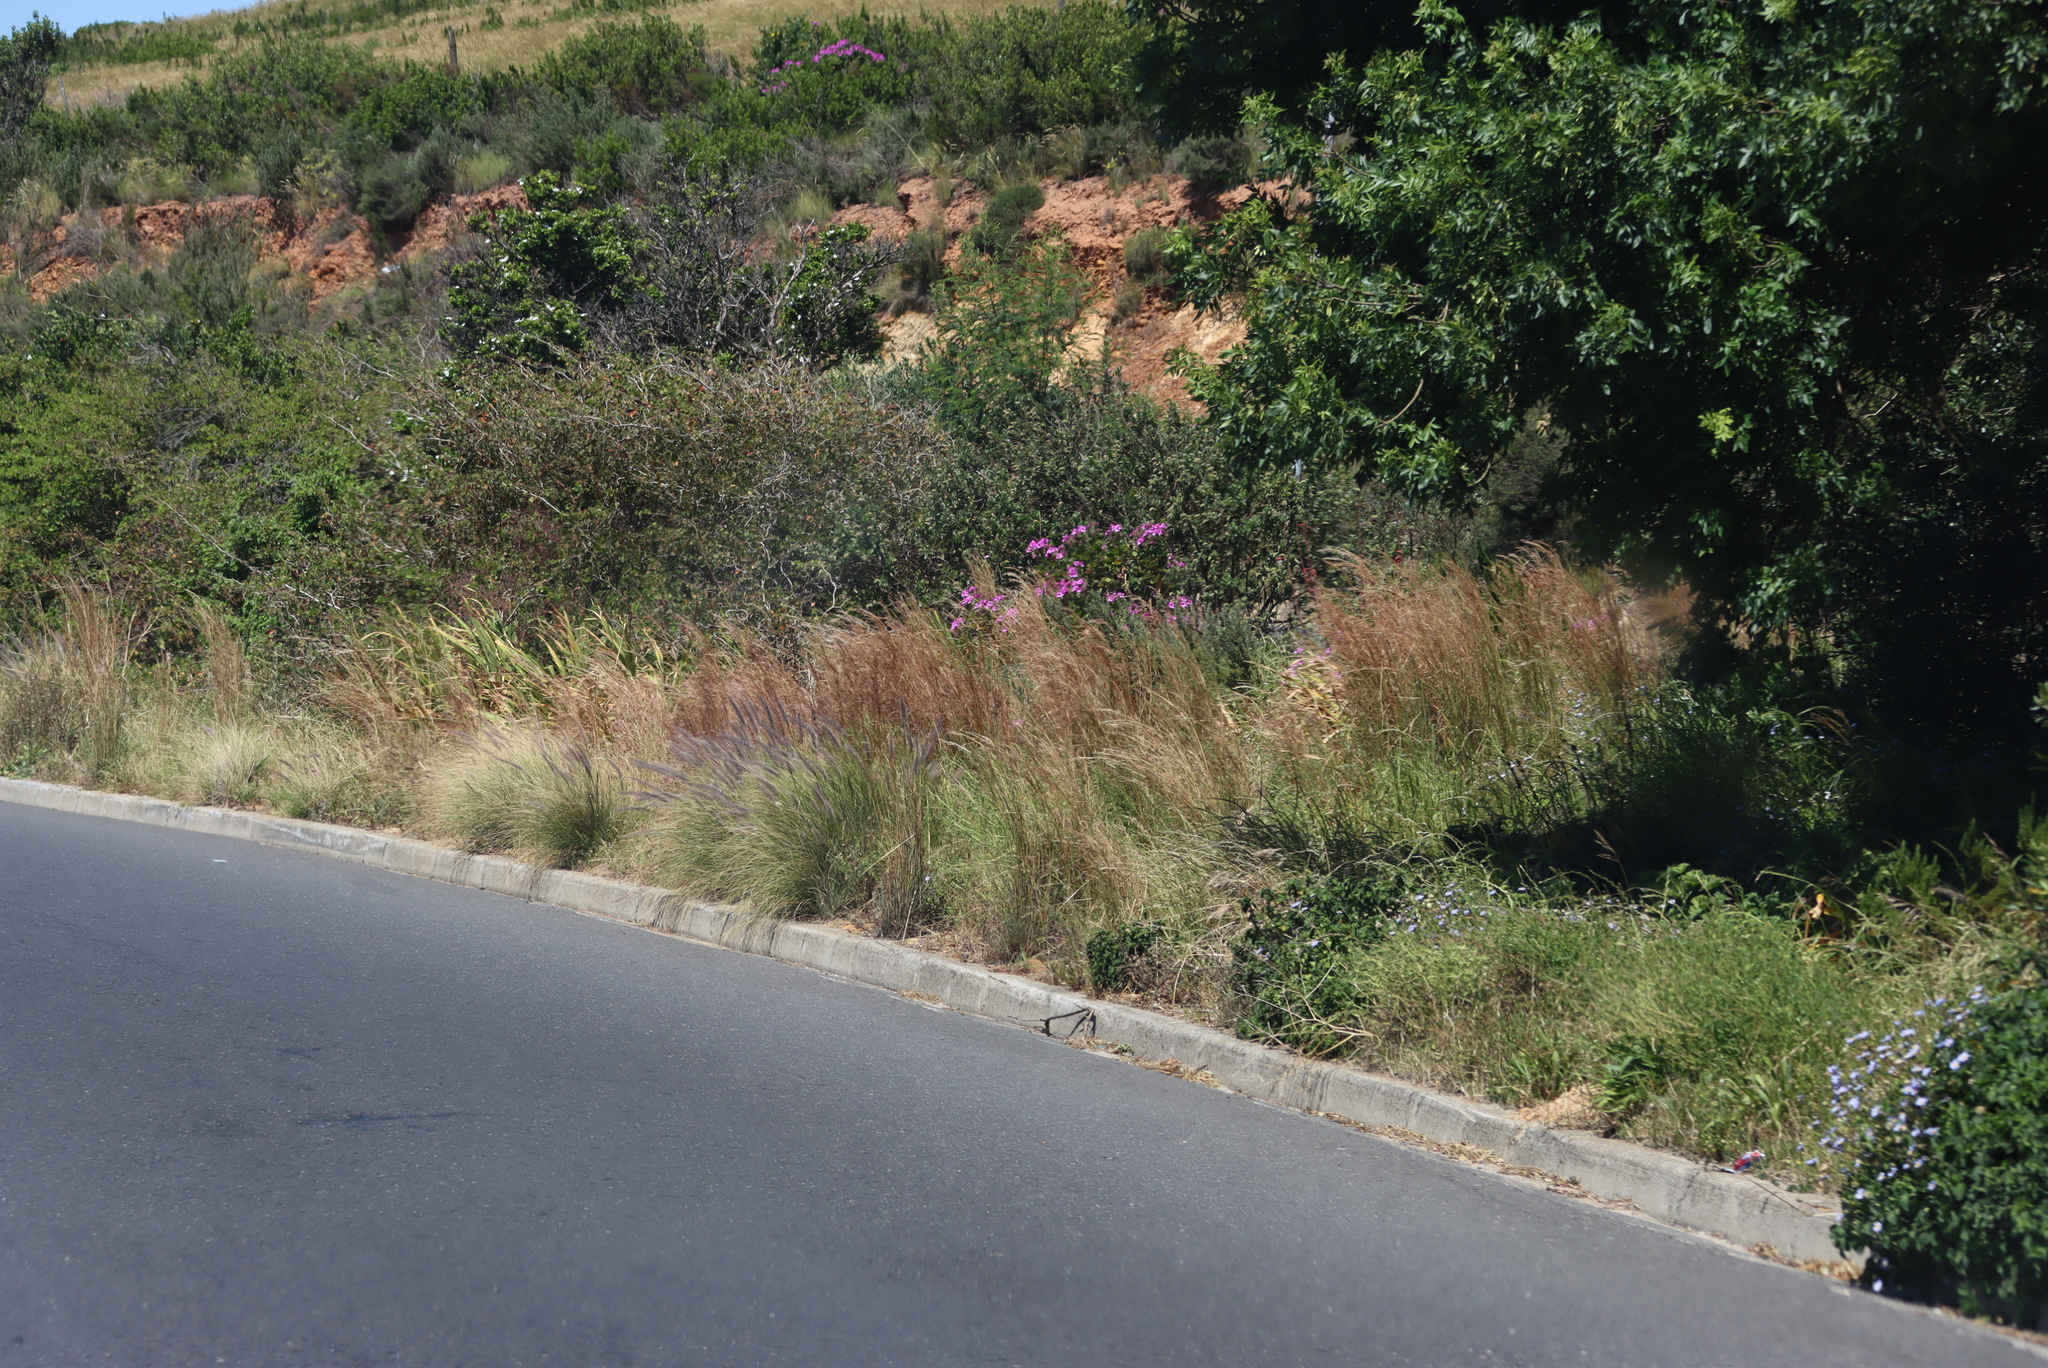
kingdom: Plantae
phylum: Tracheophyta
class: Liliopsida
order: Poales
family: Poaceae
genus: Cenchrus
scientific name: Cenchrus setaceus
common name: Crimson fountaingrass
